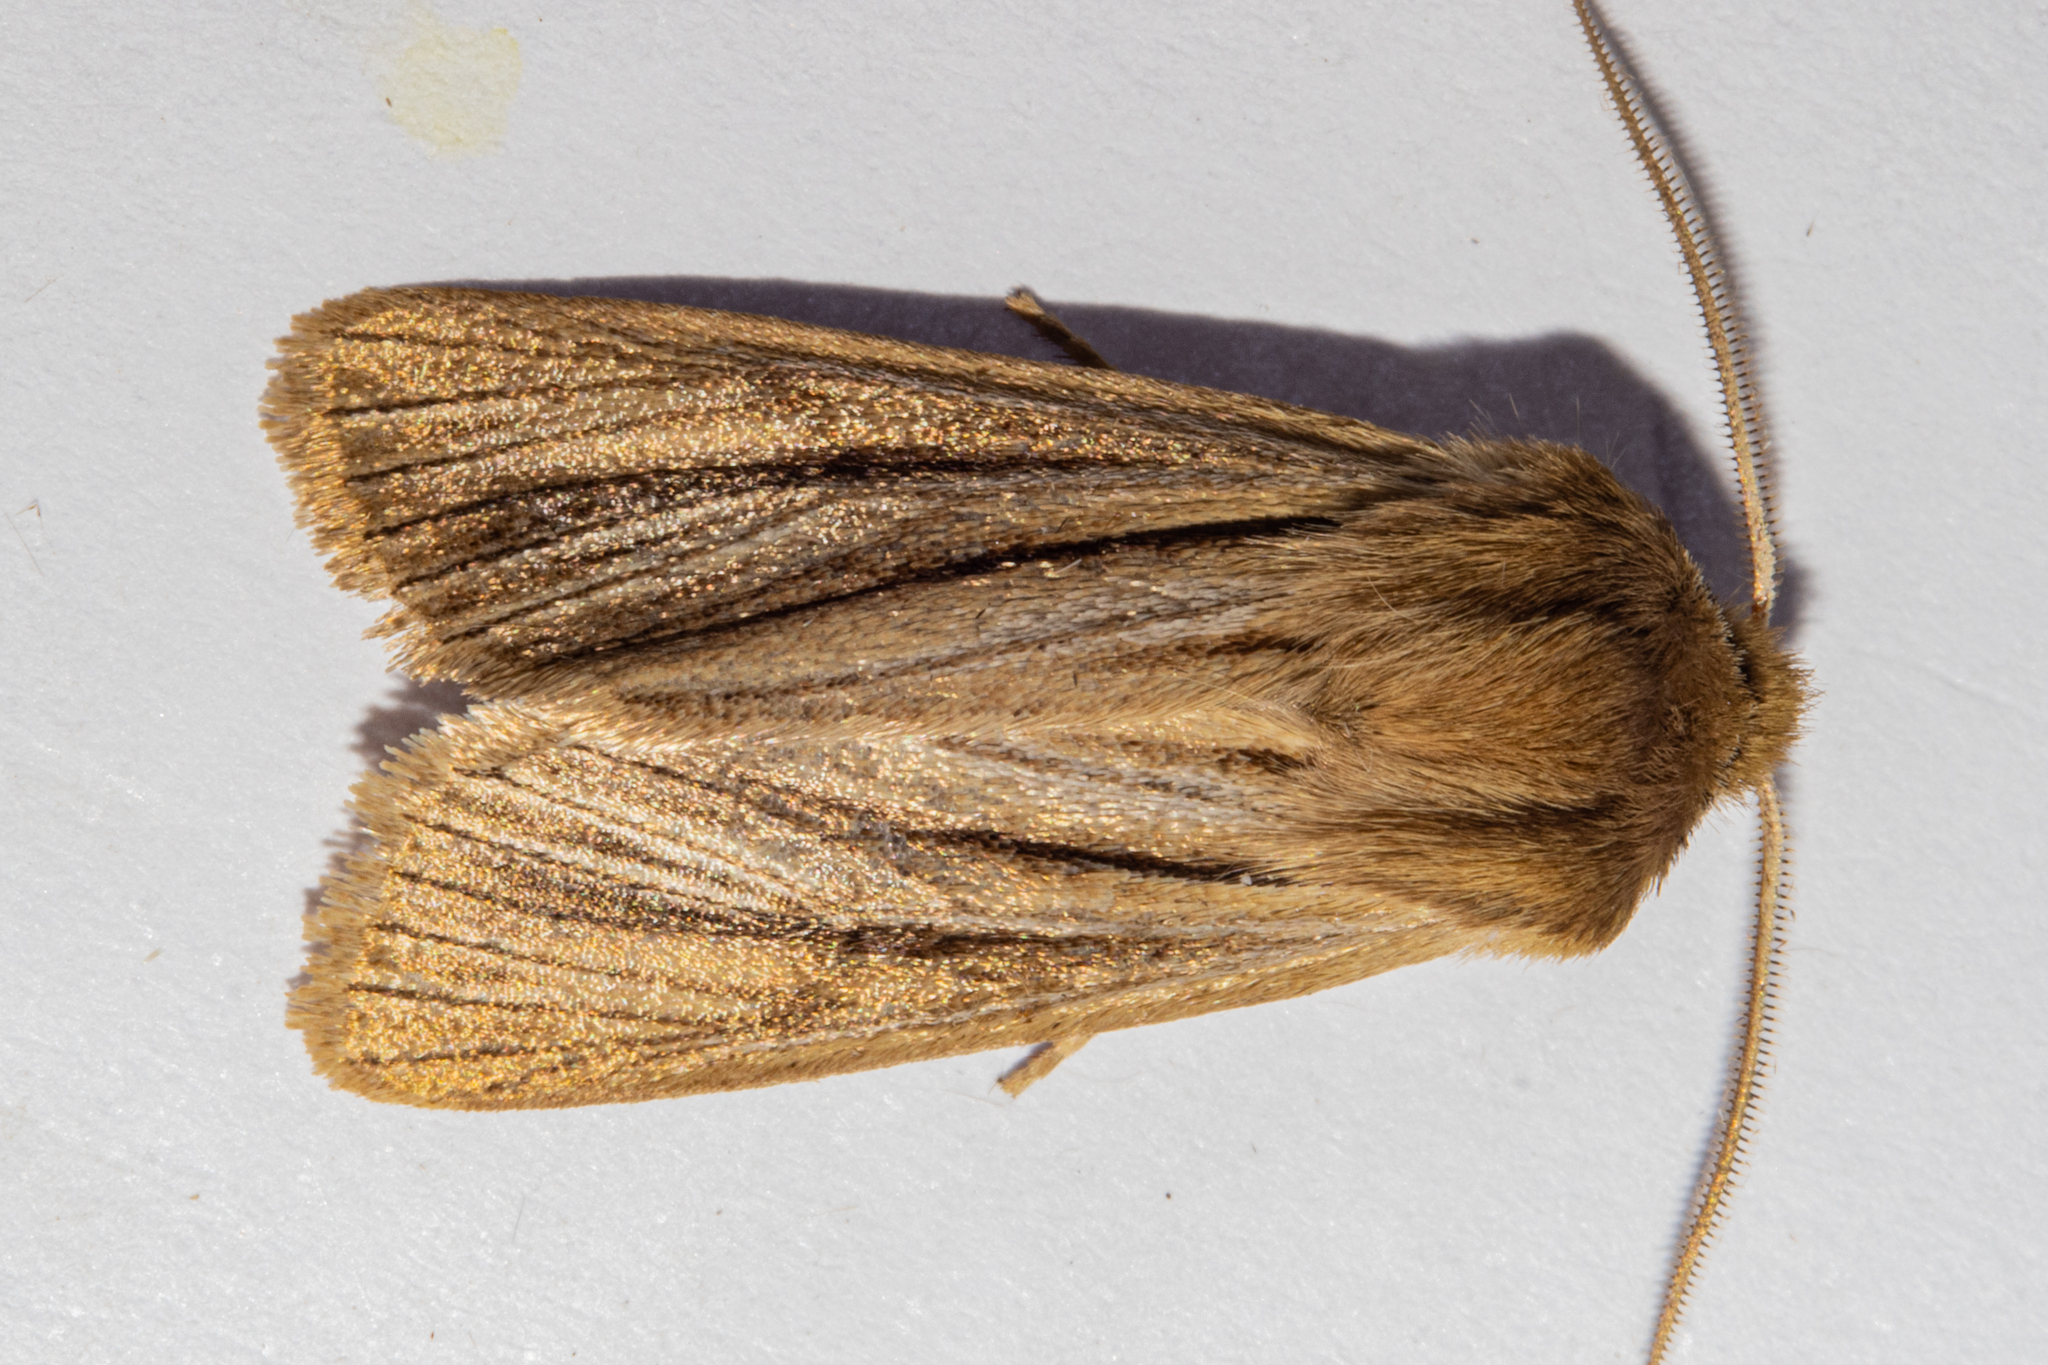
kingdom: Animalia
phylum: Arthropoda
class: Insecta
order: Lepidoptera
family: Noctuidae
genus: Ichneutica
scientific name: Ichneutica
